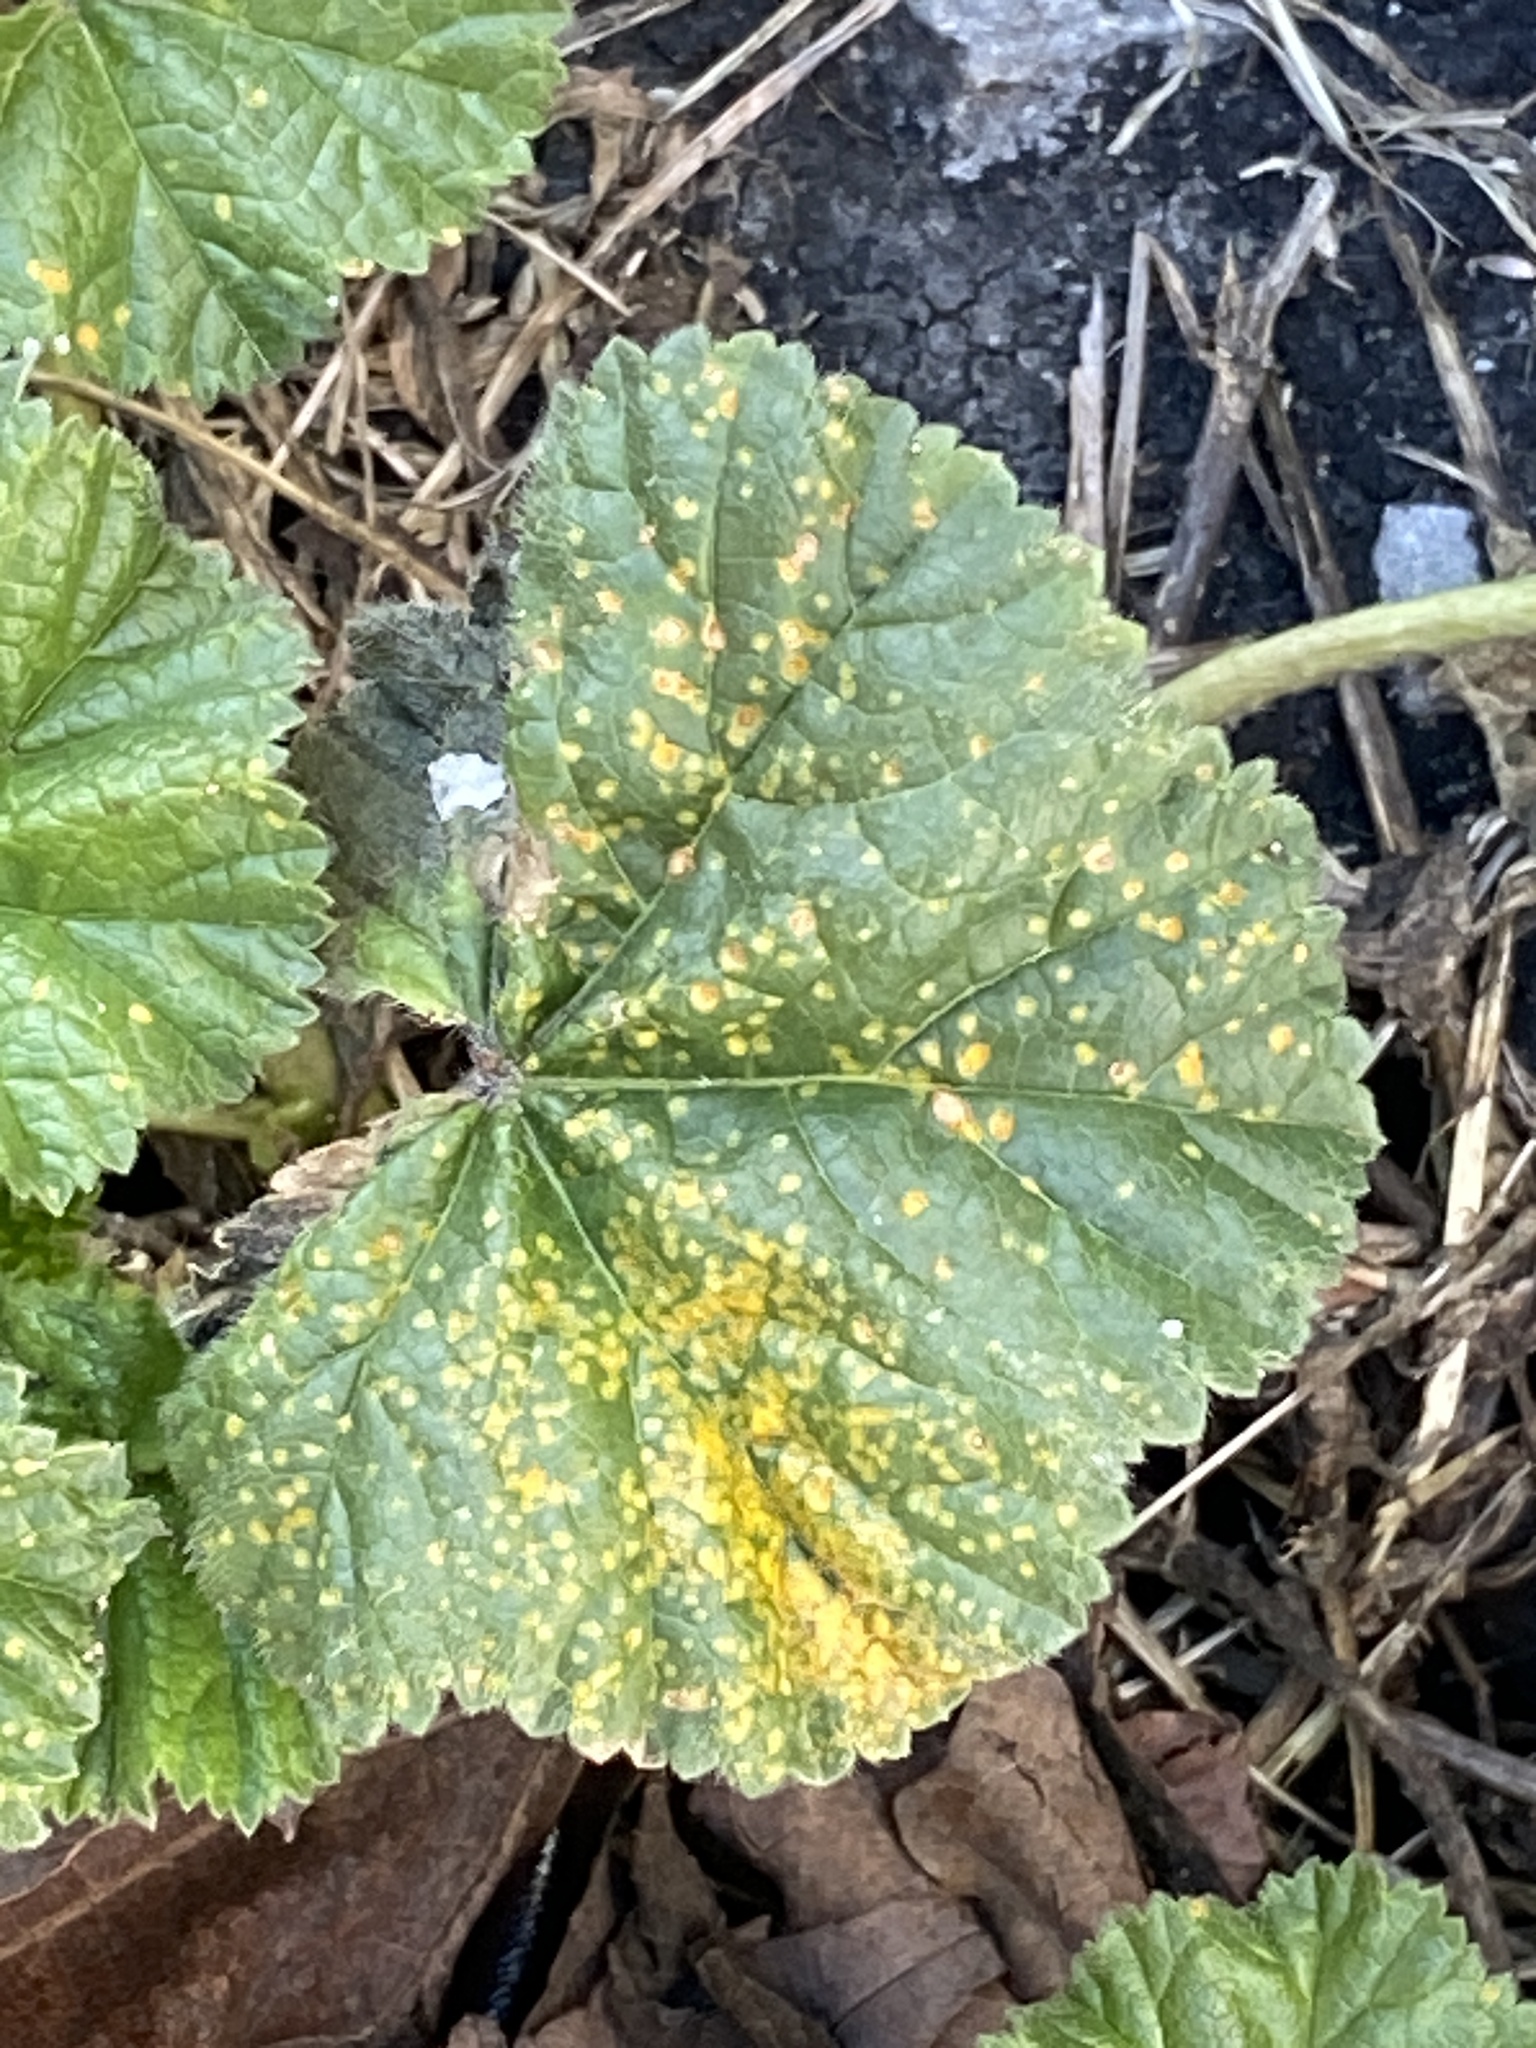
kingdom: Fungi
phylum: Basidiomycota
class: Pucciniomycetes
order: Pucciniales
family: Pucciniaceae
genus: Puccinia
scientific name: Puccinia malvacearum
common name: Hollyhock rust
